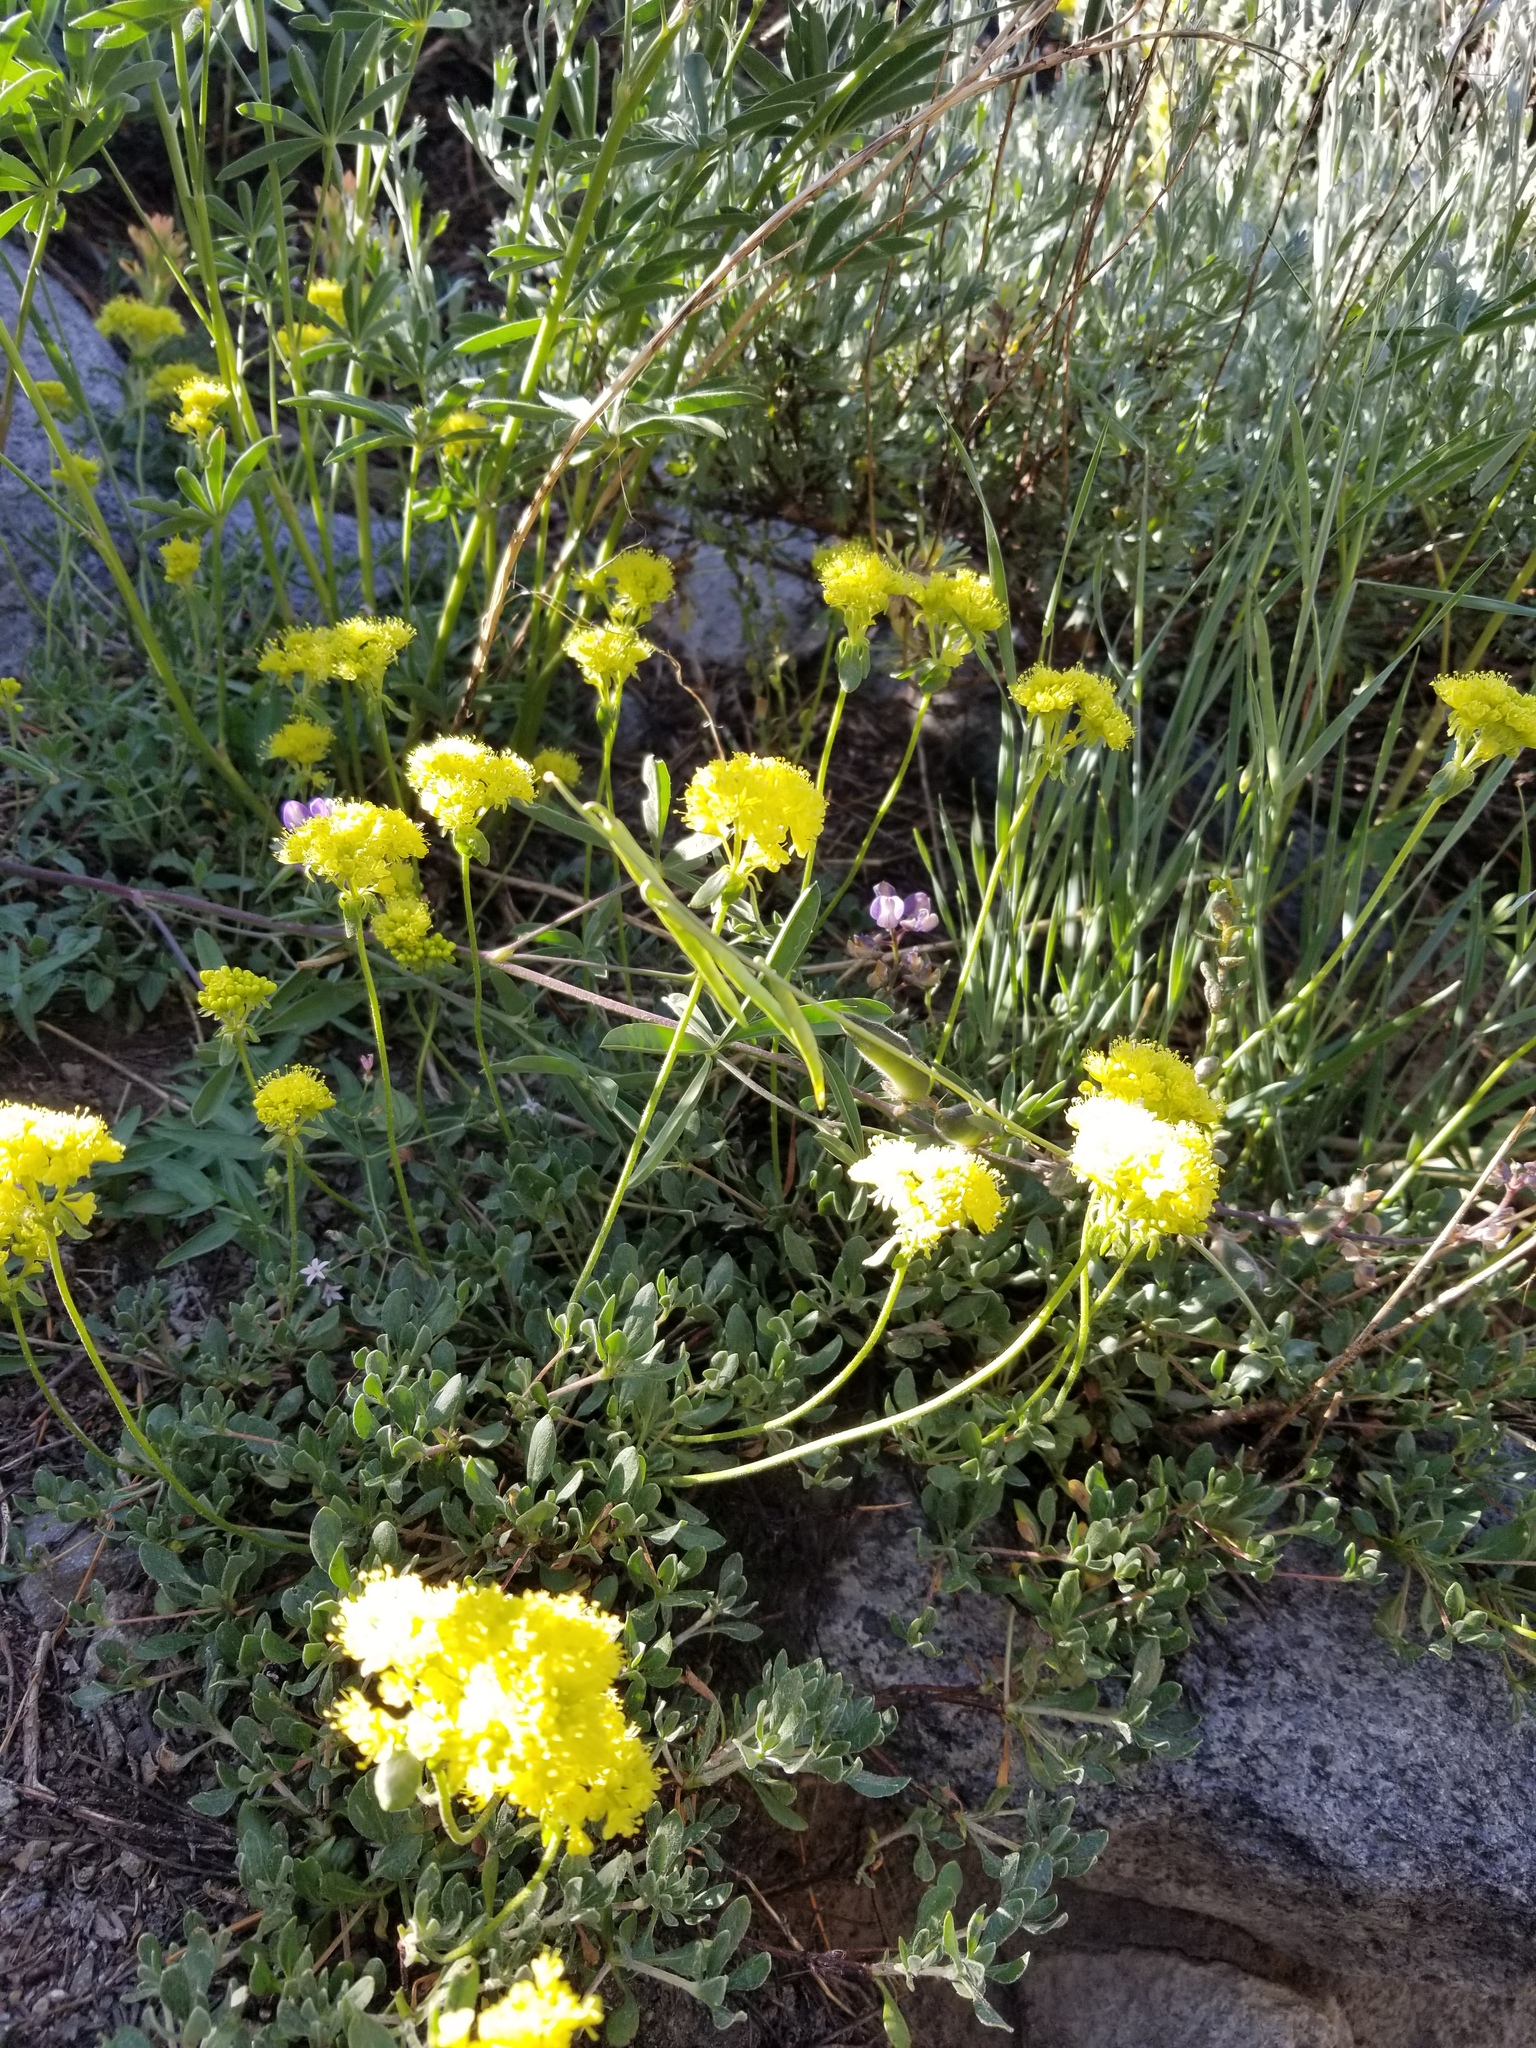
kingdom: Plantae
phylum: Tracheophyta
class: Magnoliopsida
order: Caryophyllales
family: Polygonaceae
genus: Eriogonum
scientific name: Eriogonum umbellatum
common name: Sulfur-buckwheat
